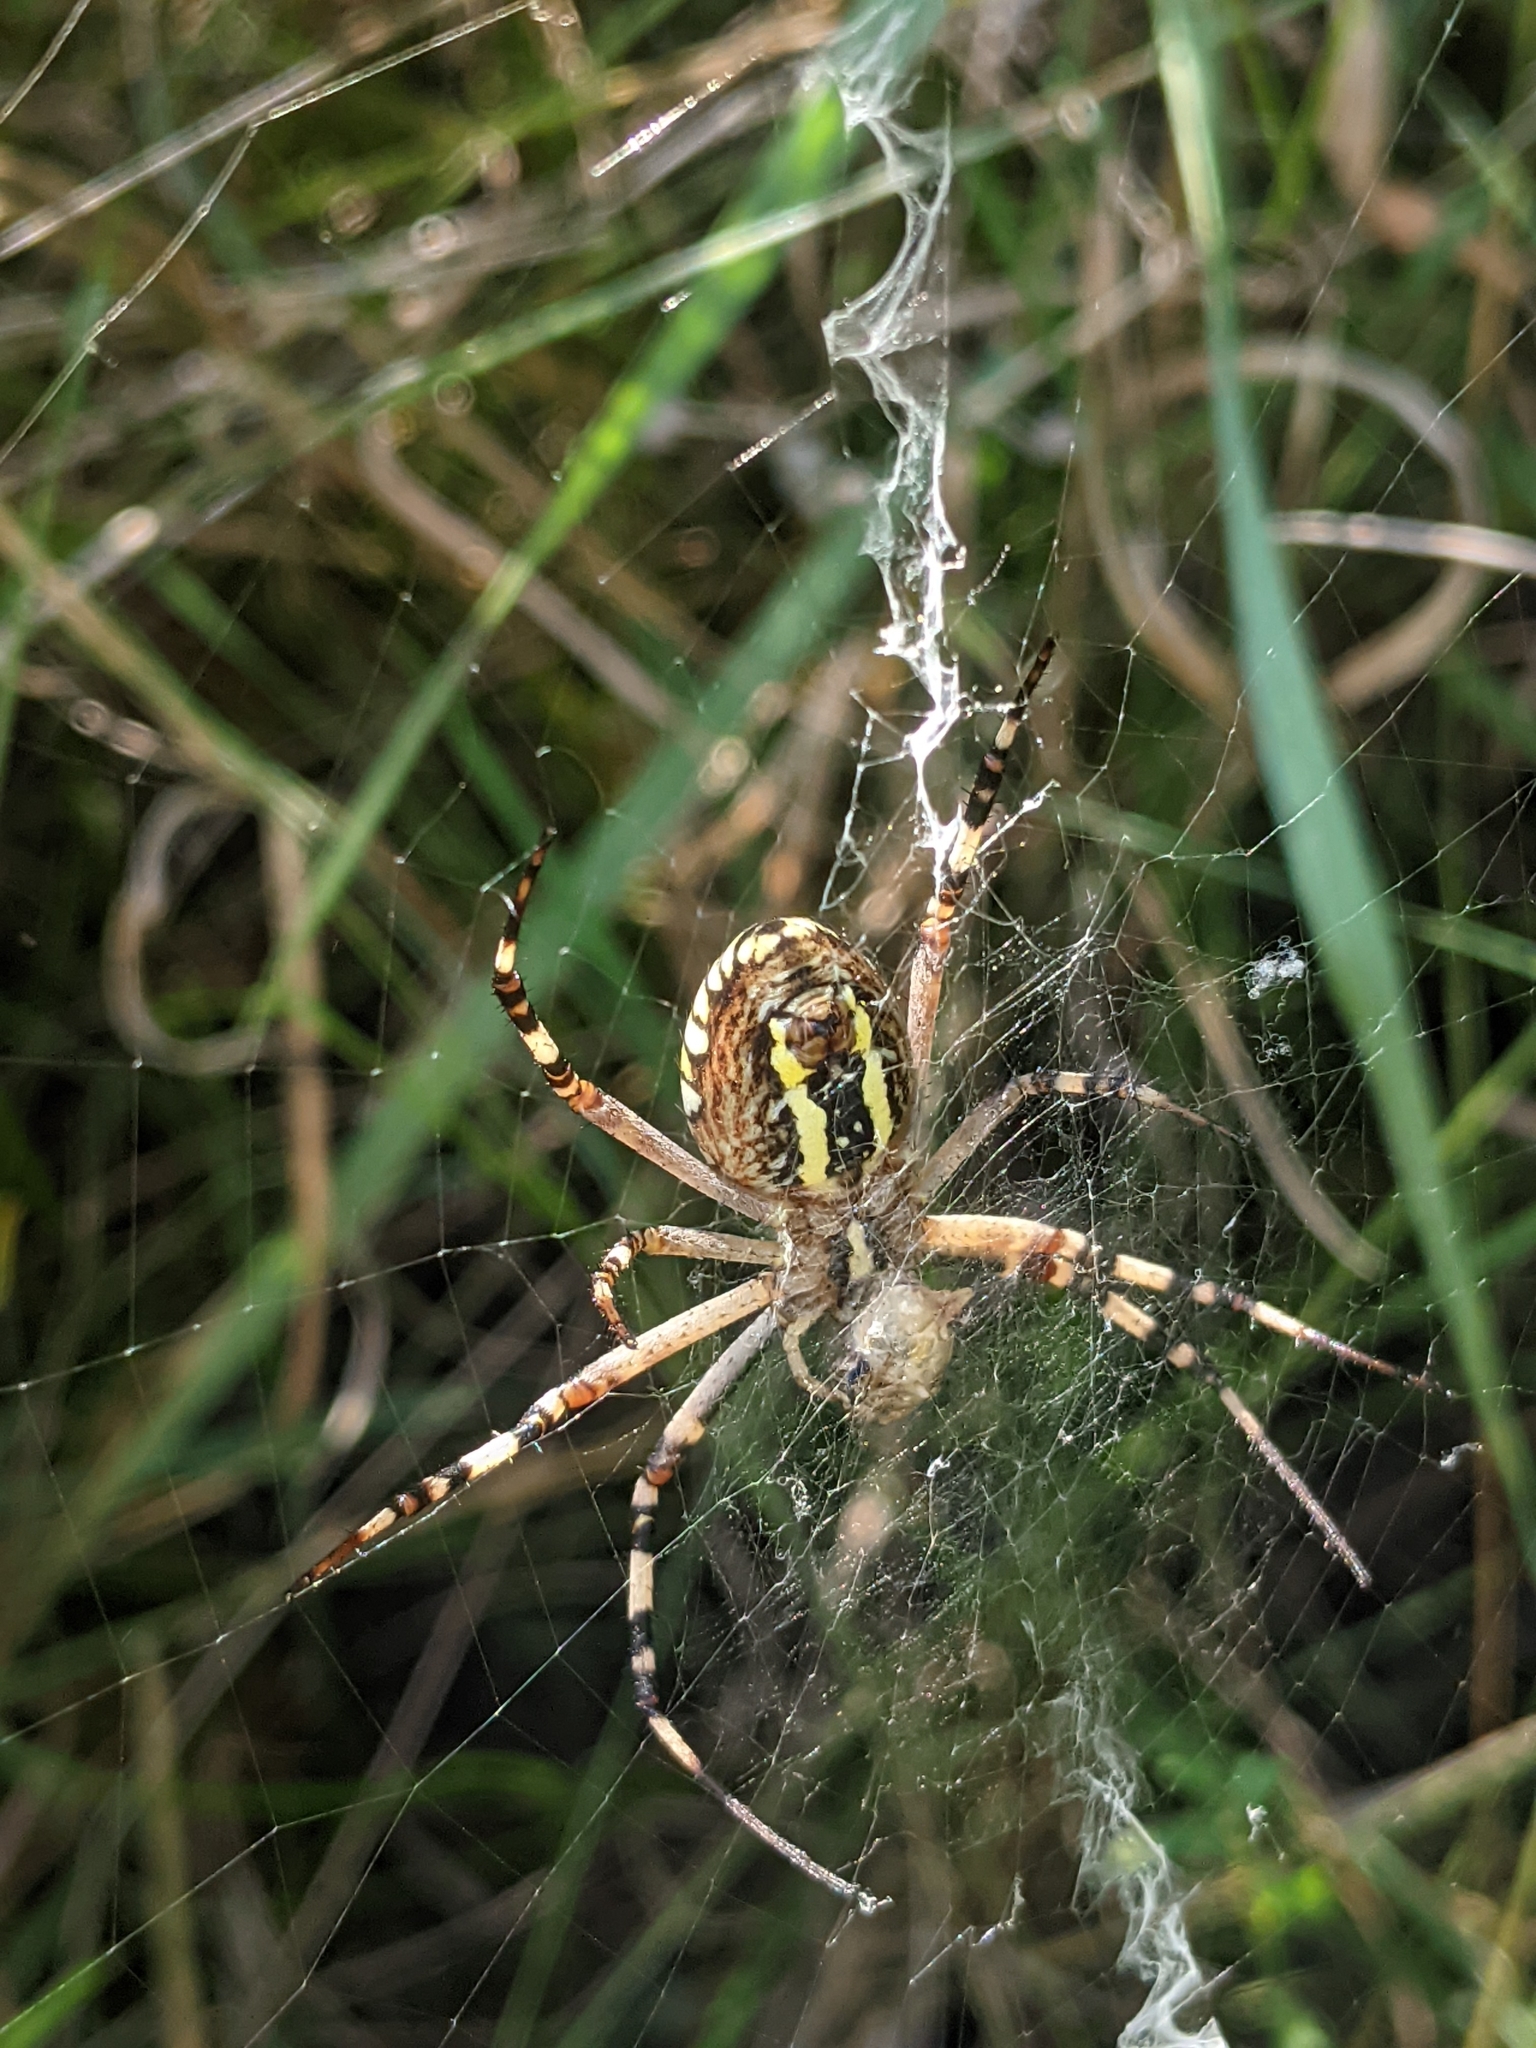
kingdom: Animalia
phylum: Arthropoda
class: Arachnida
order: Araneae
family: Araneidae
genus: Argiope
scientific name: Argiope bruennichi
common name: Wasp spider
